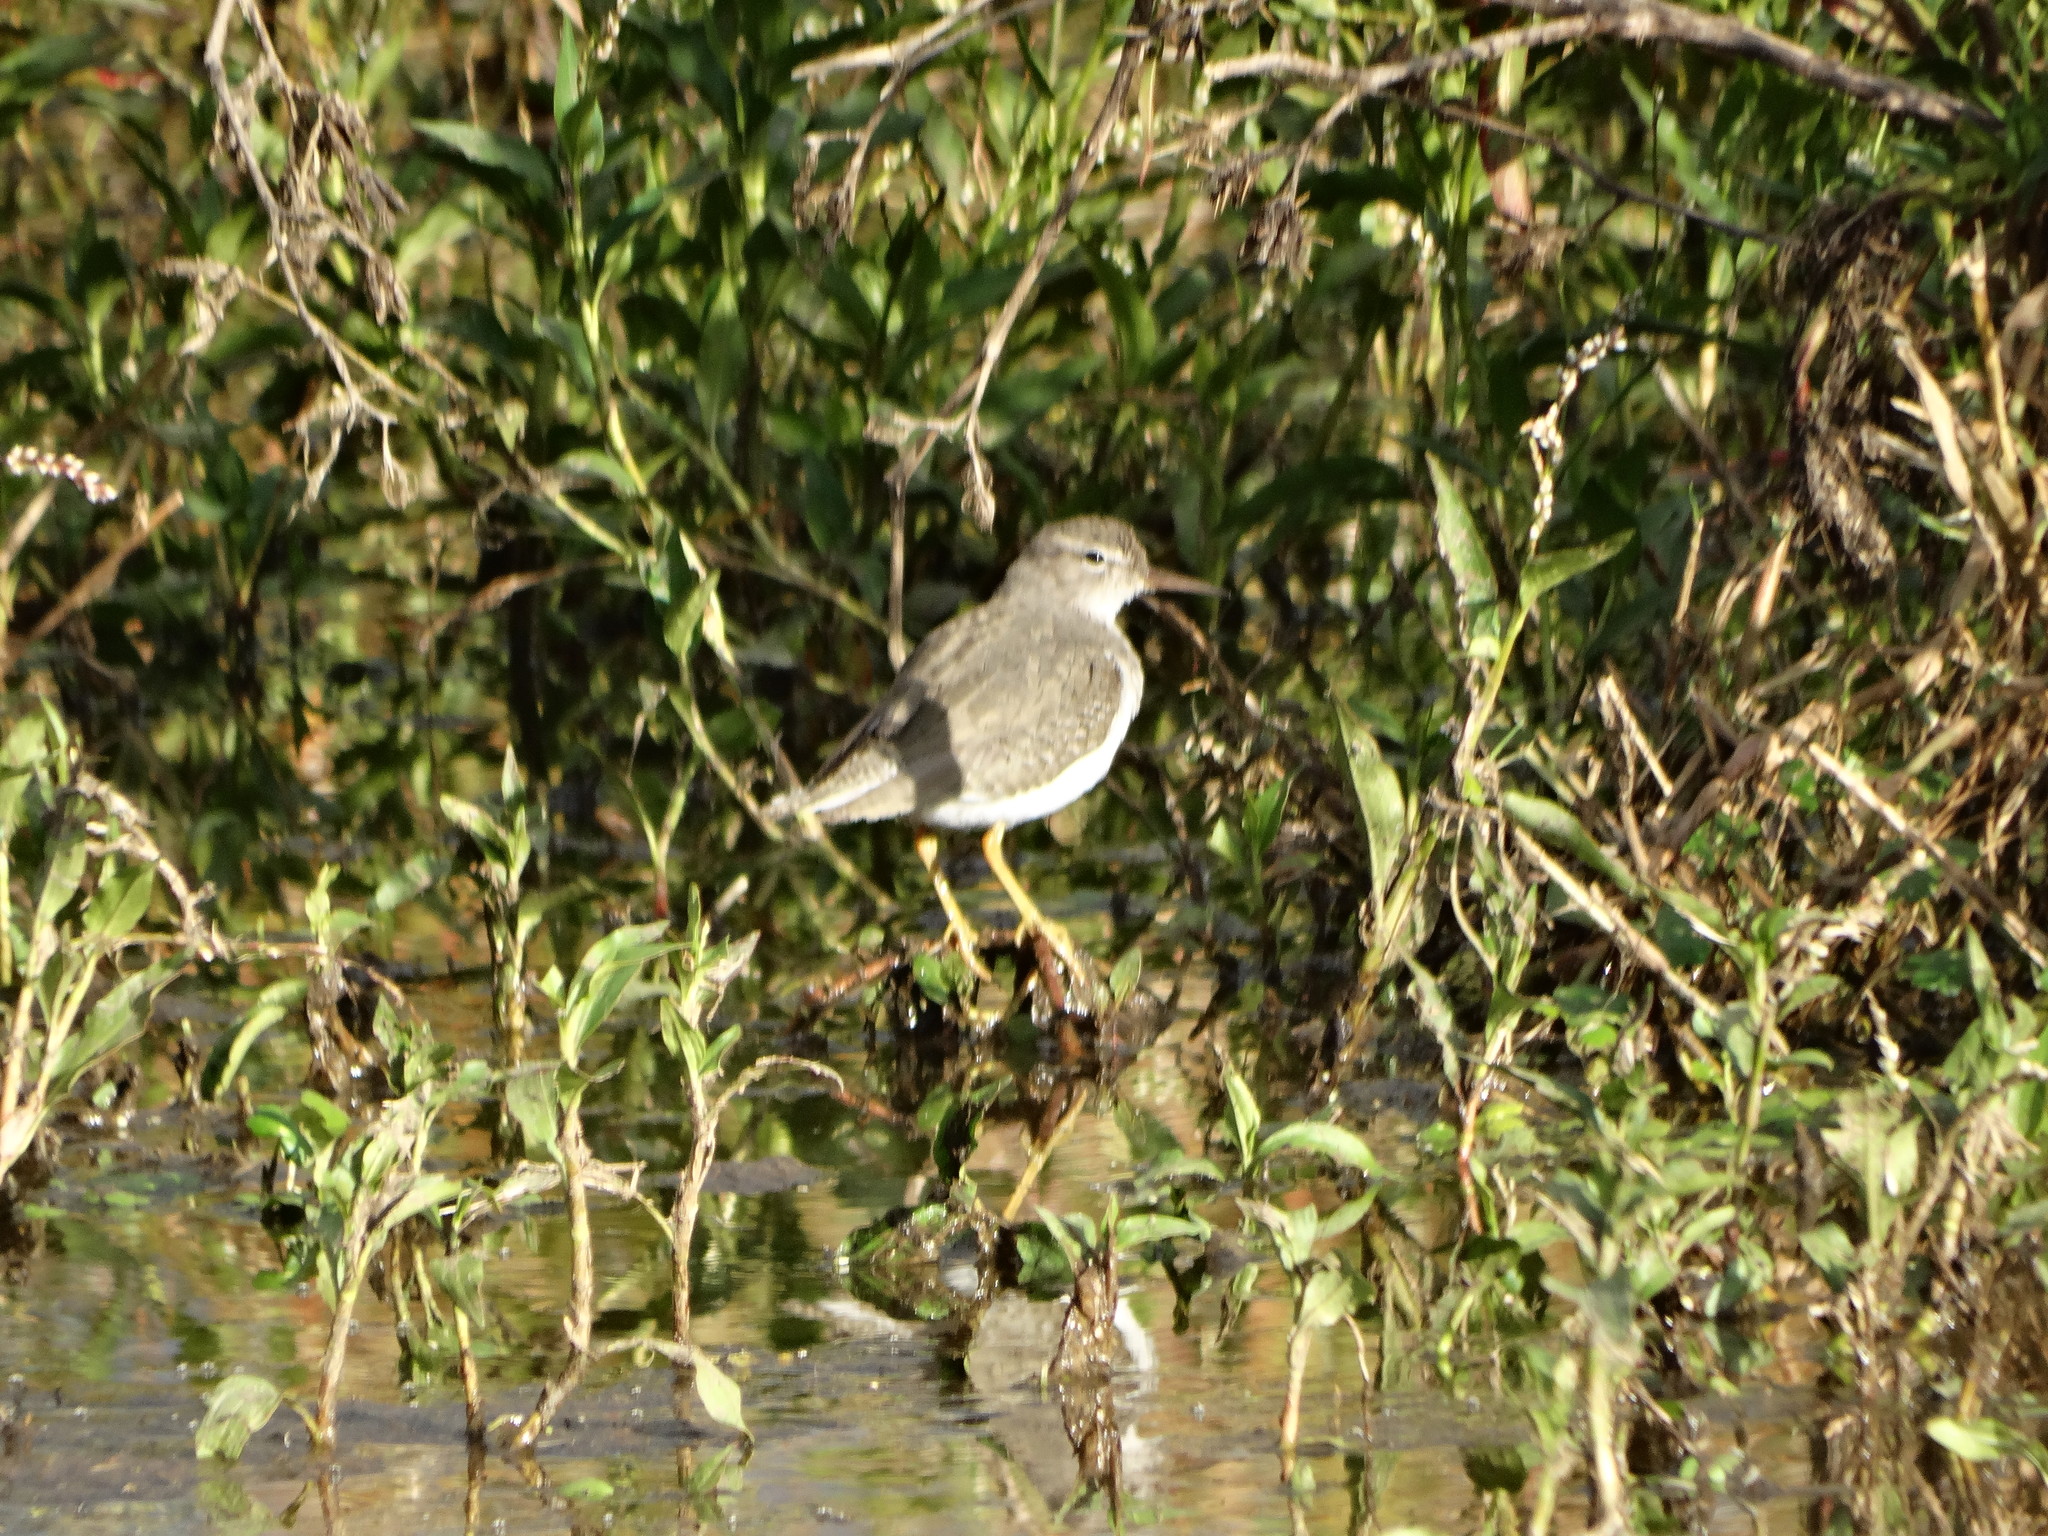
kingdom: Animalia
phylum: Chordata
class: Aves
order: Charadriiformes
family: Scolopacidae
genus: Actitis
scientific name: Actitis macularius
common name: Spotted sandpiper
